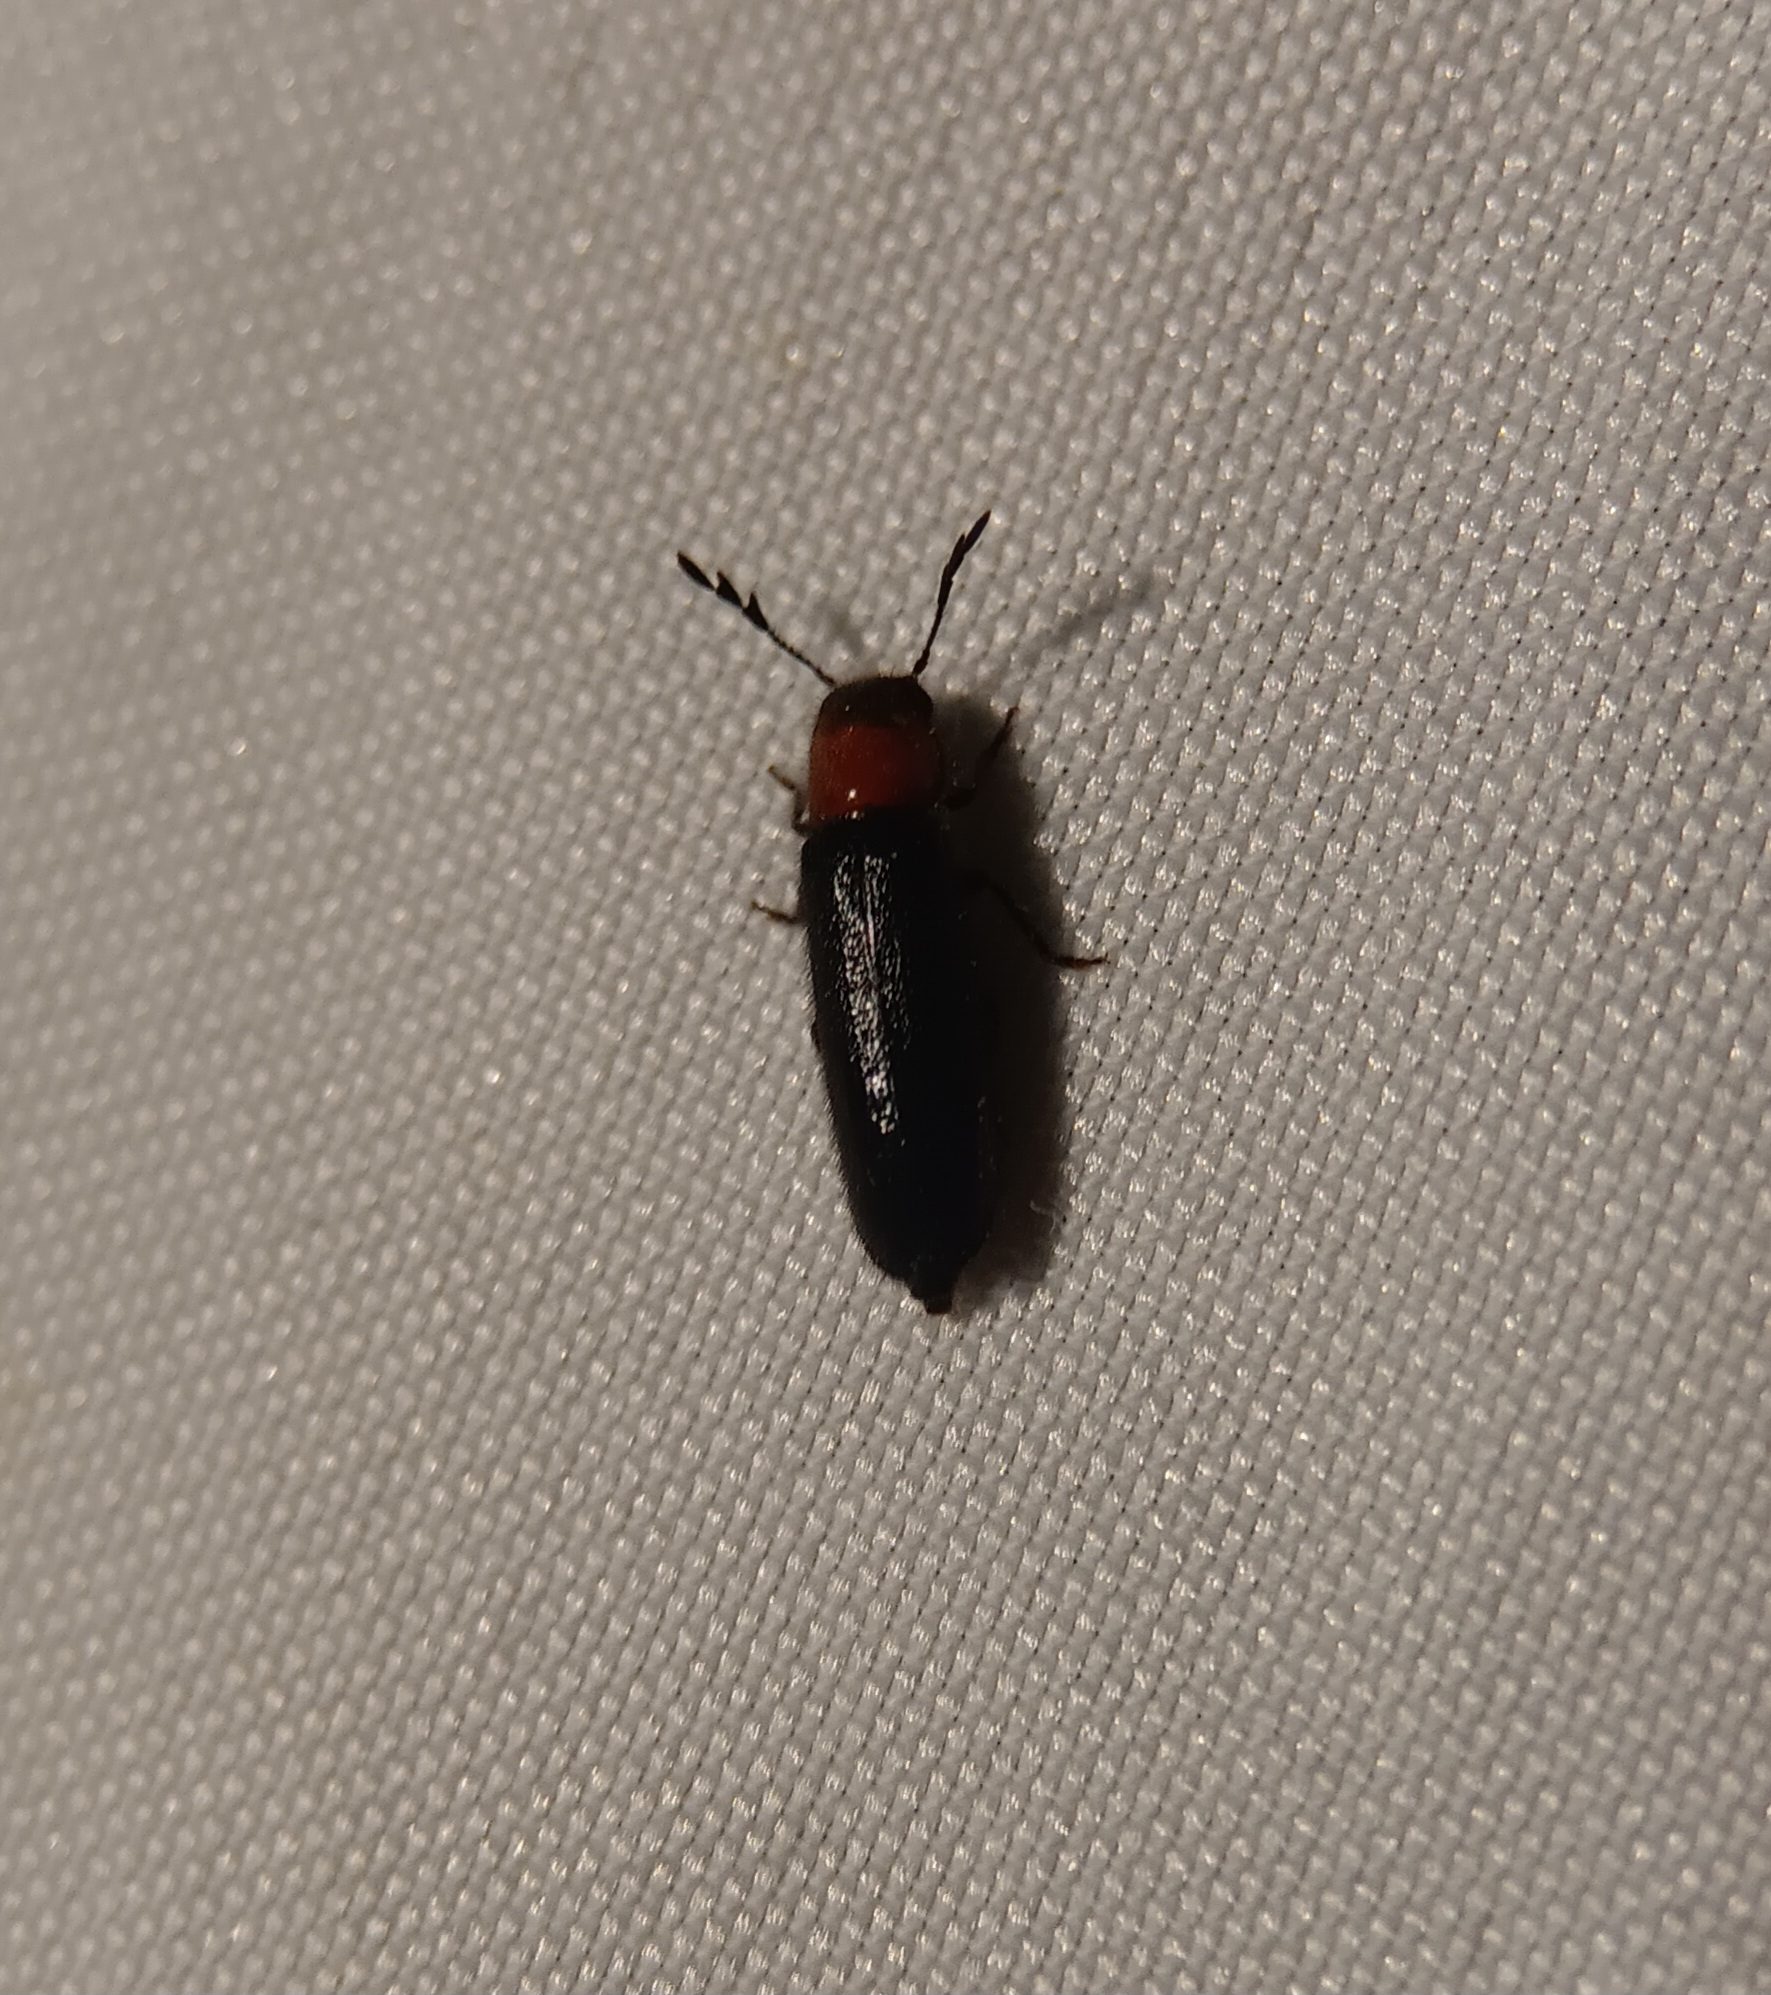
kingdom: Animalia
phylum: Arthropoda
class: Insecta
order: Coleoptera
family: Cleridae
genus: Neorthopleura
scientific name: Neorthopleura thoracica
